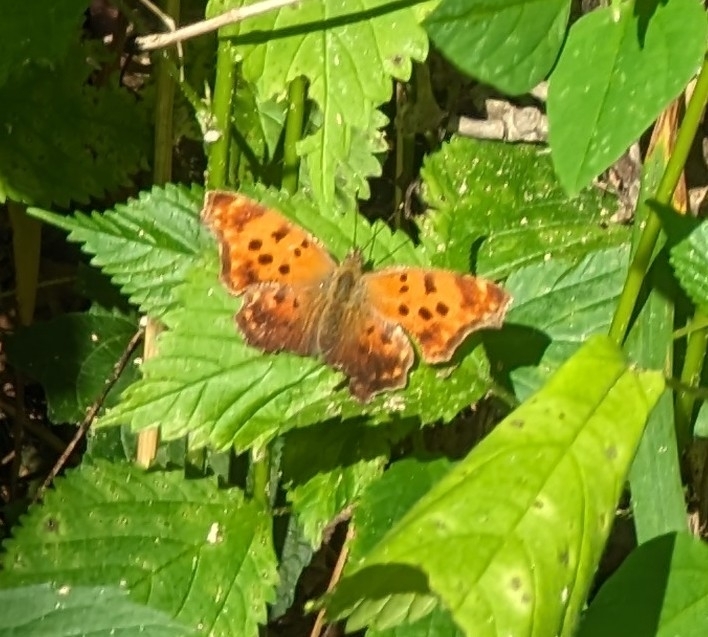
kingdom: Animalia
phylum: Arthropoda
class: Insecta
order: Lepidoptera
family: Nymphalidae
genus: Polygonia
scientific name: Polygonia comma
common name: Eastern comma
